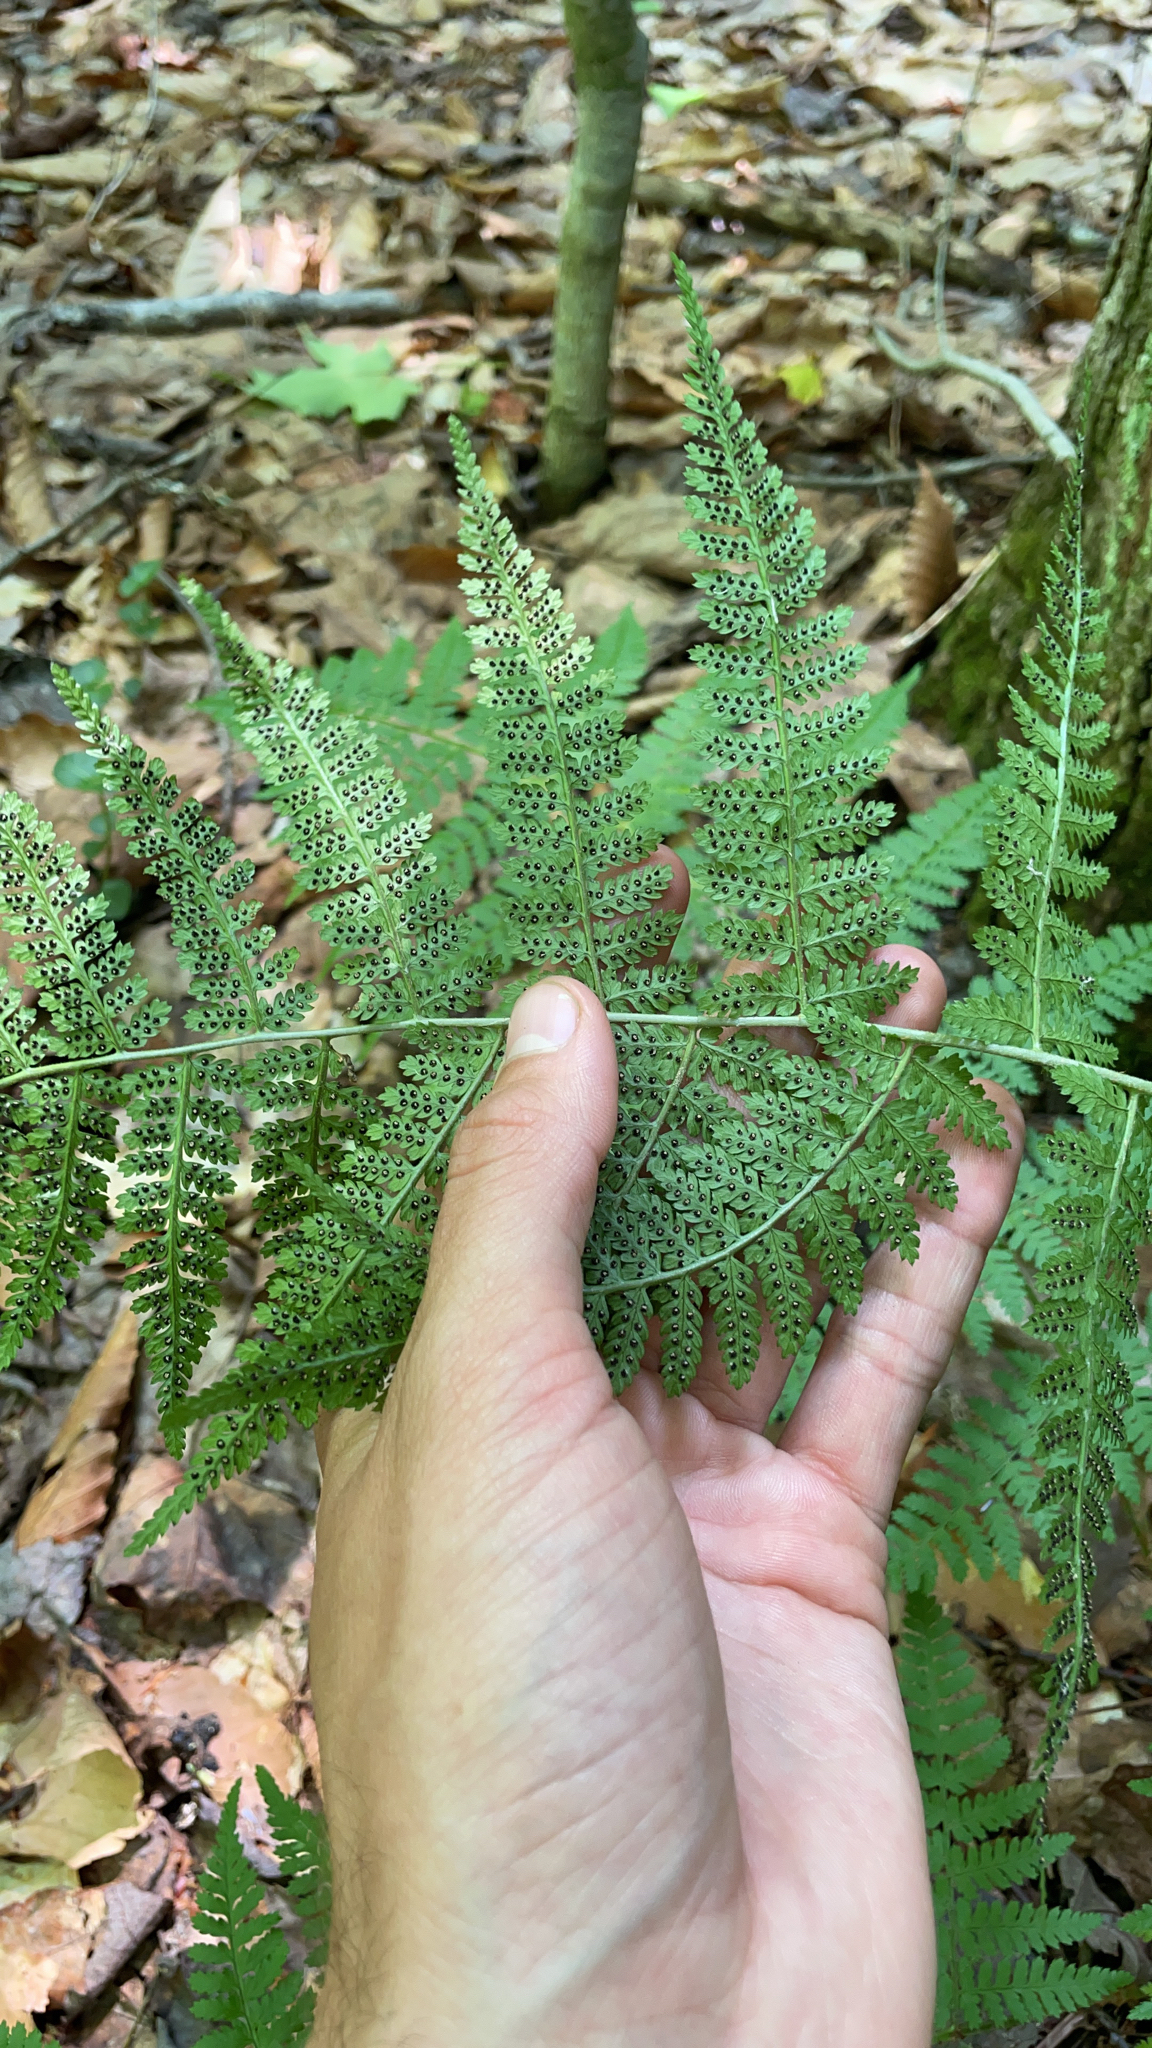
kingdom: Plantae
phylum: Tracheophyta
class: Polypodiopsida
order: Polypodiales
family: Dryopteridaceae
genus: Dryopteris
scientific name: Dryopteris intermedia
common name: Evergreen wood fern
